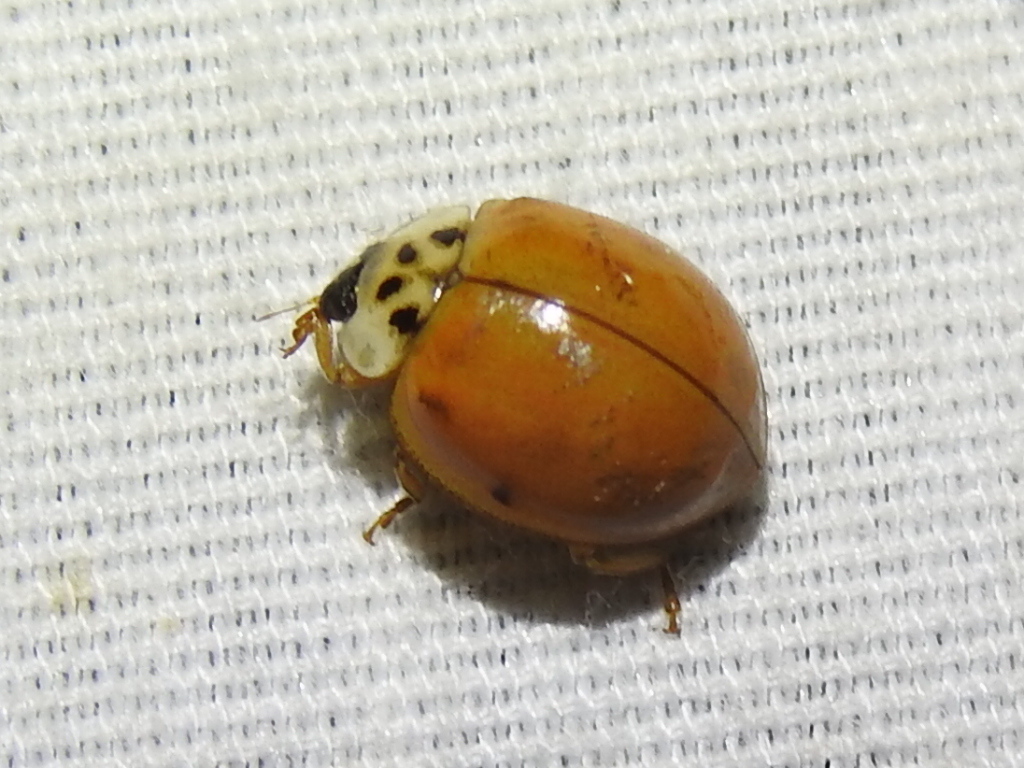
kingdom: Animalia
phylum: Arthropoda
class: Insecta
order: Coleoptera
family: Coccinellidae
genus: Harmonia
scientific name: Harmonia axyridis
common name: Harlequin ladybird
